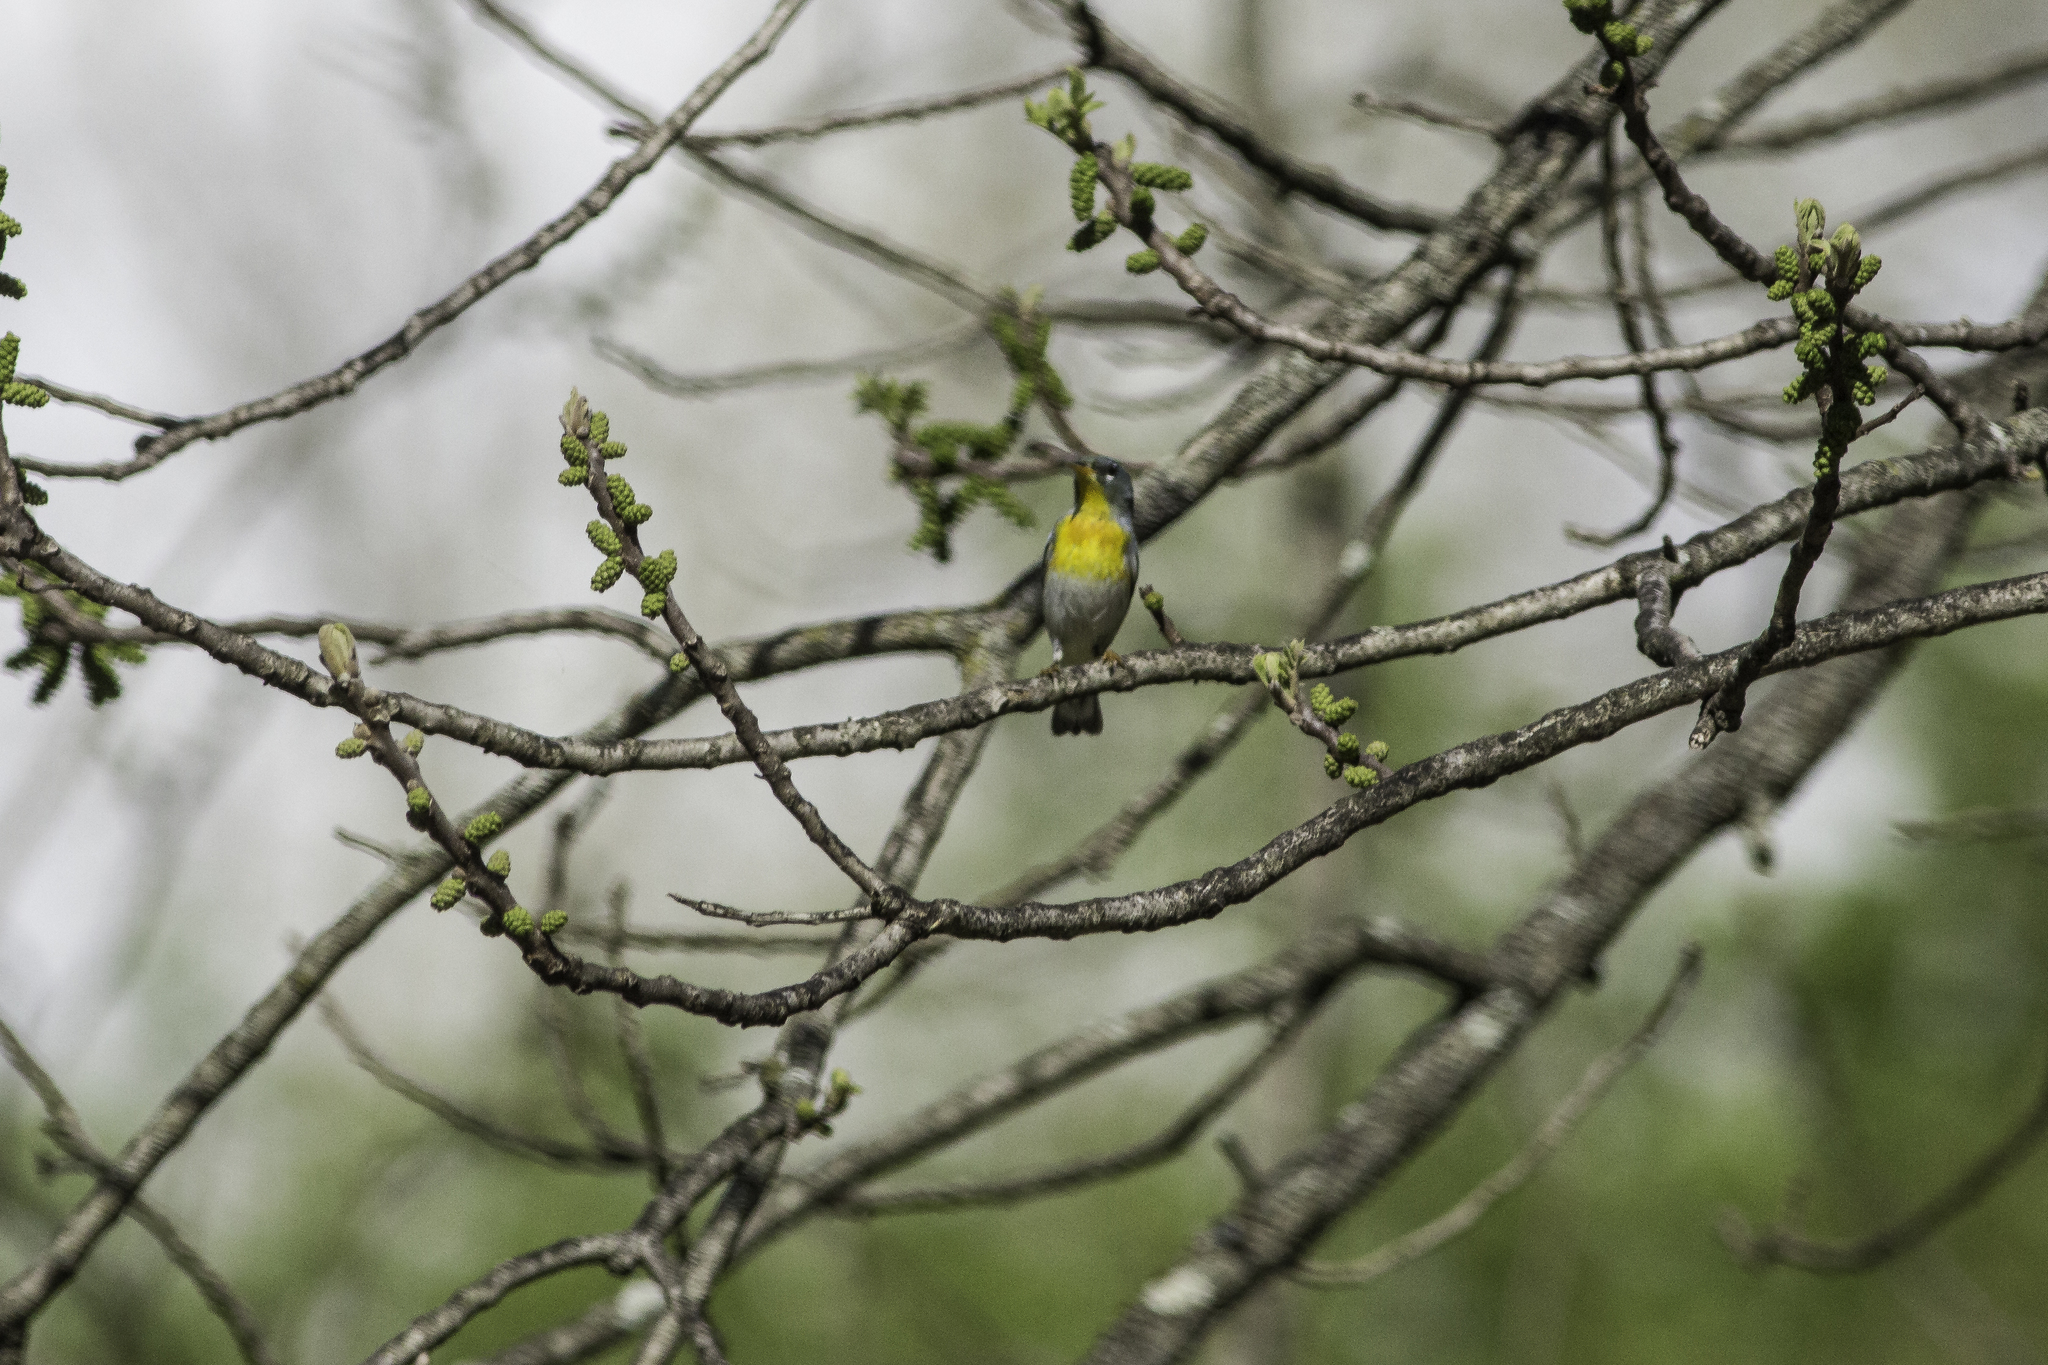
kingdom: Animalia
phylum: Chordata
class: Aves
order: Passeriformes
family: Parulidae
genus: Setophaga
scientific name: Setophaga americana
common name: Northern parula
